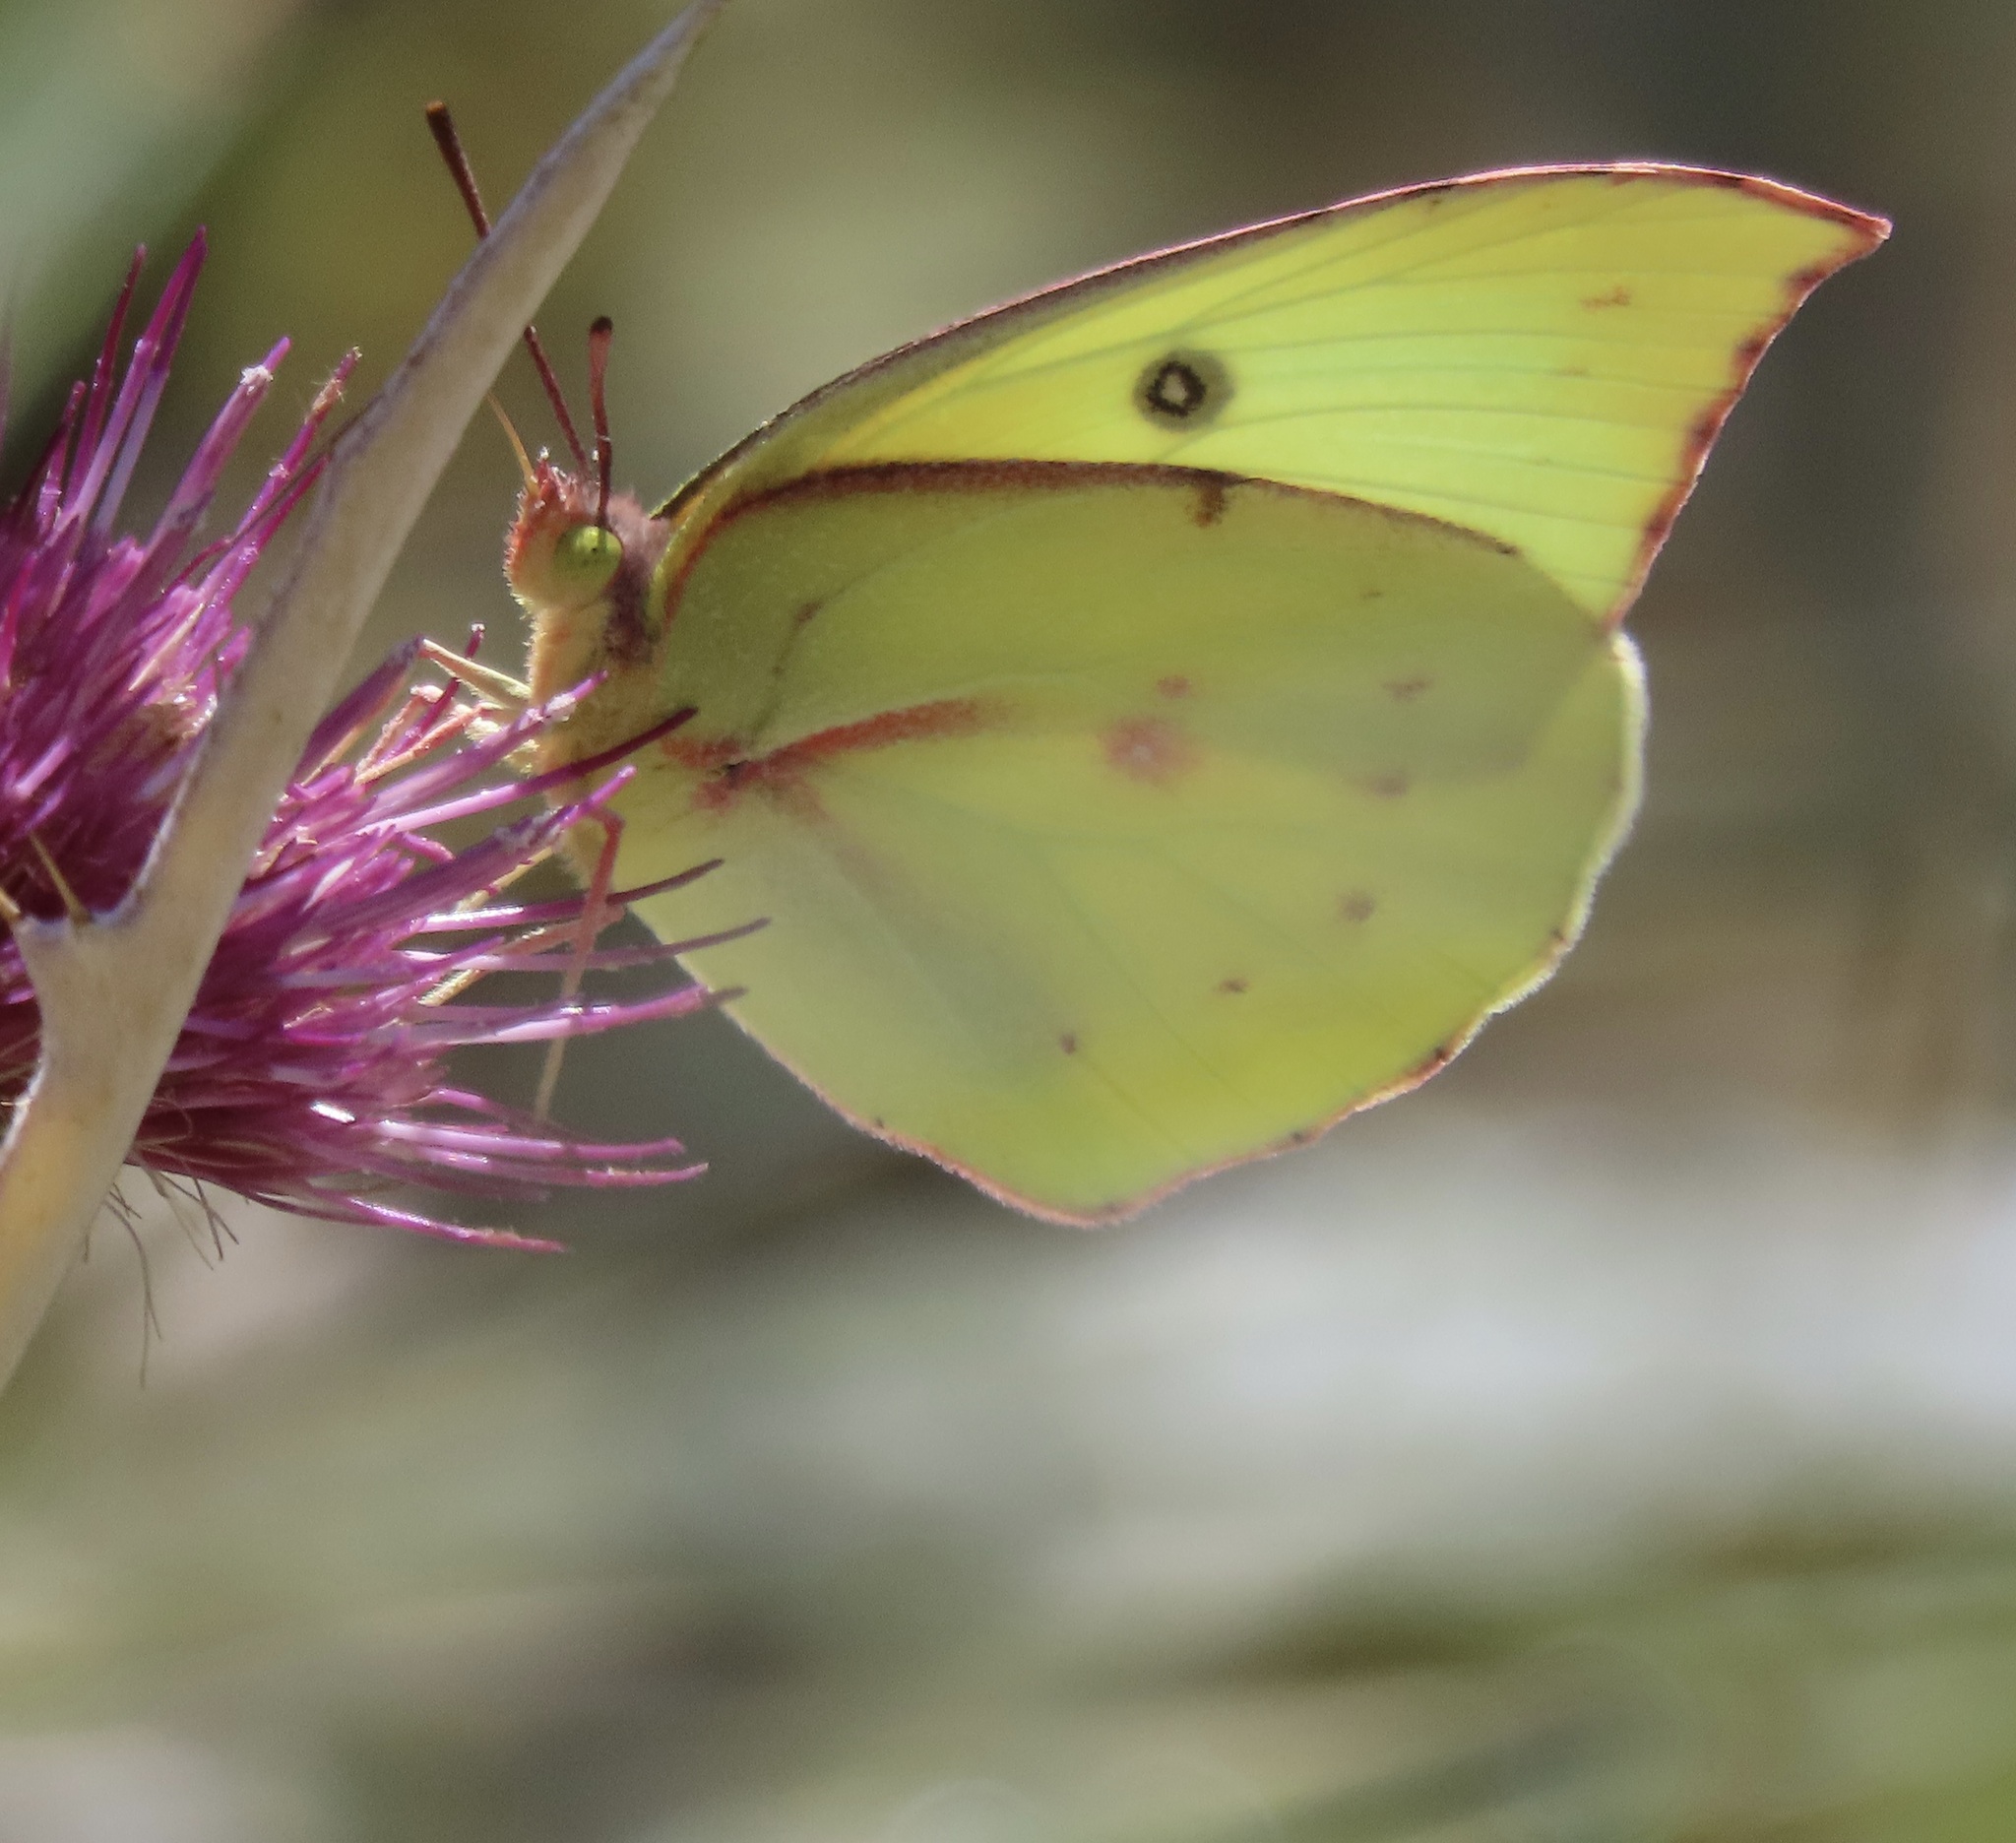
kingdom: Animalia
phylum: Arthropoda
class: Insecta
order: Lepidoptera
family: Pieridae
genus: Zerene
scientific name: Zerene eurydice
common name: California dogface
